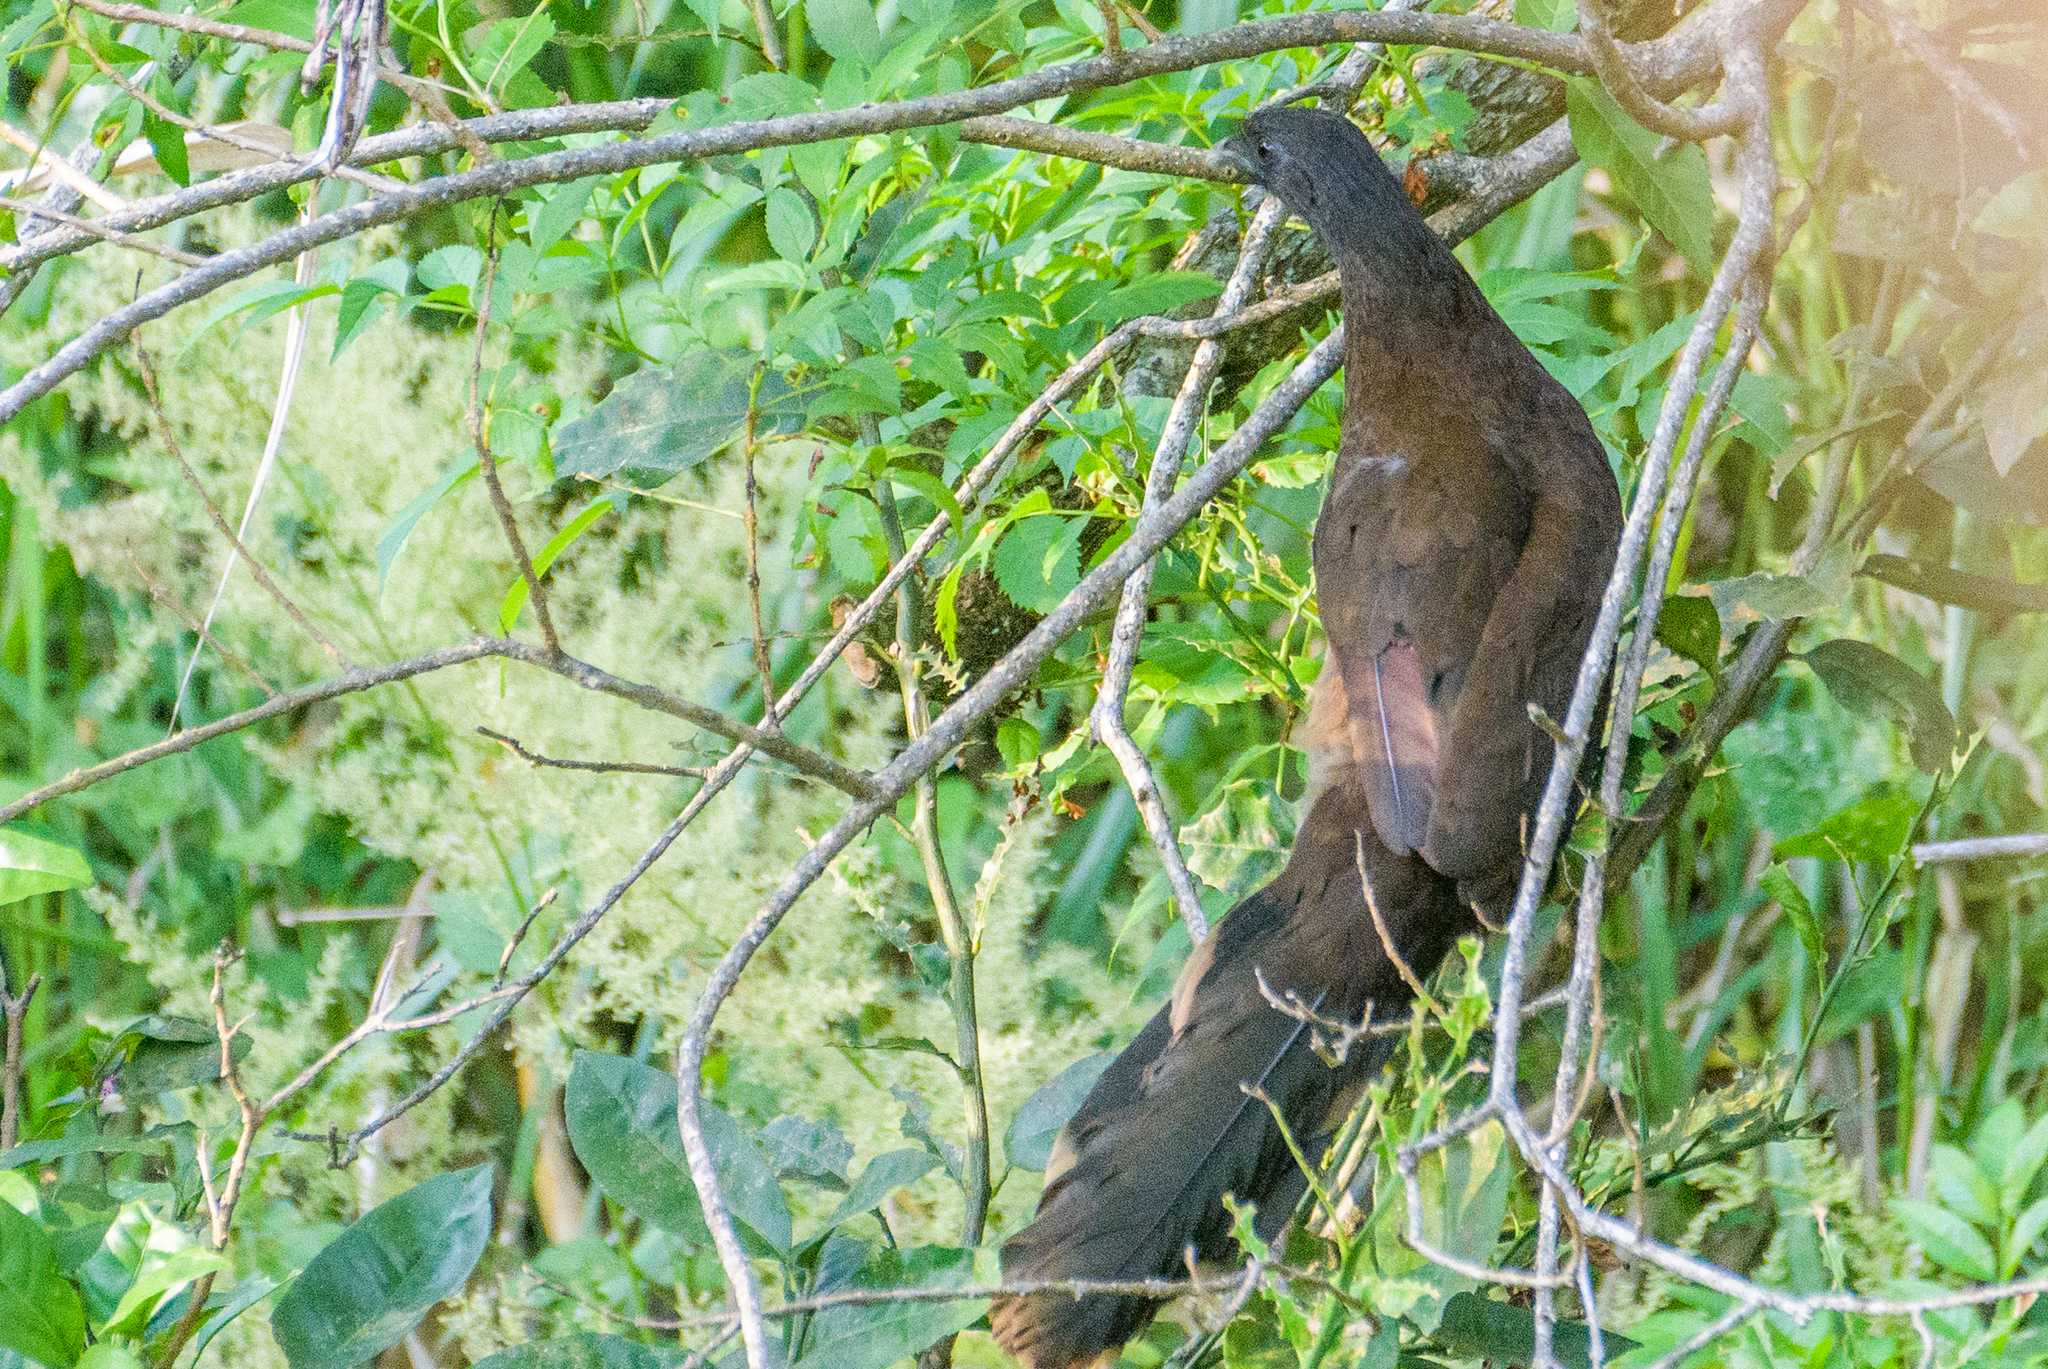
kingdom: Animalia
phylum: Chordata
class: Aves
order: Galliformes
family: Cracidae
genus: Ortalis
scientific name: Ortalis cinereiceps
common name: Grey-headed chachalaca
